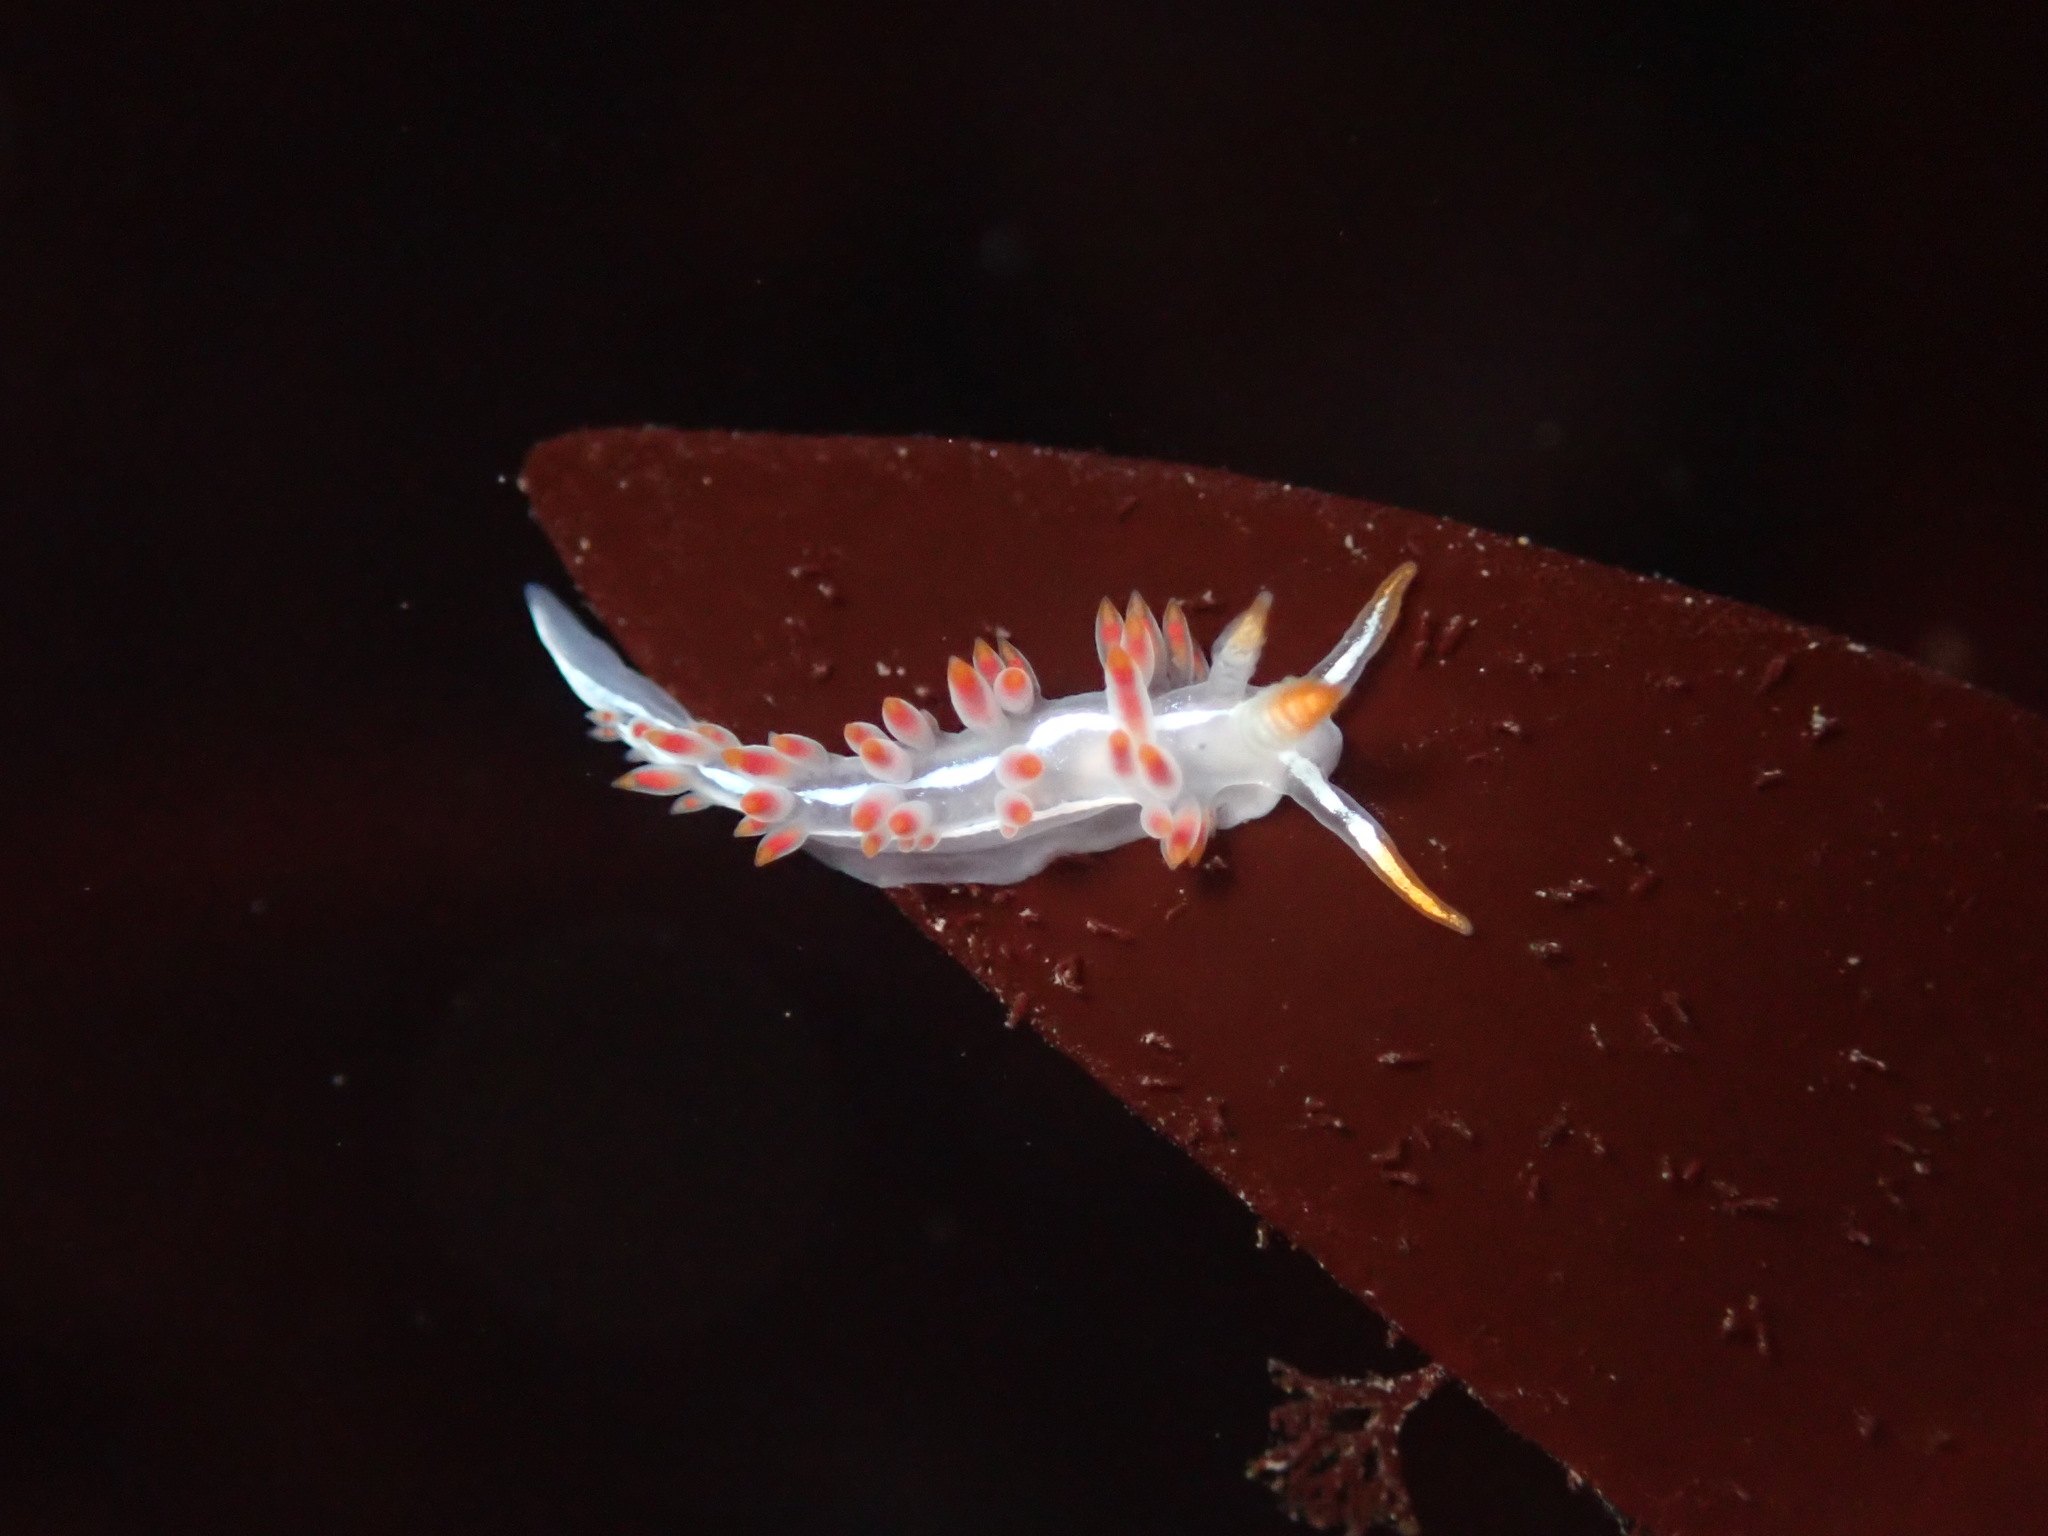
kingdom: Animalia
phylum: Mollusca
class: Gastropoda
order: Nudibranchia
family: Coryphellidae
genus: Coryphella
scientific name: Coryphella trilineata
